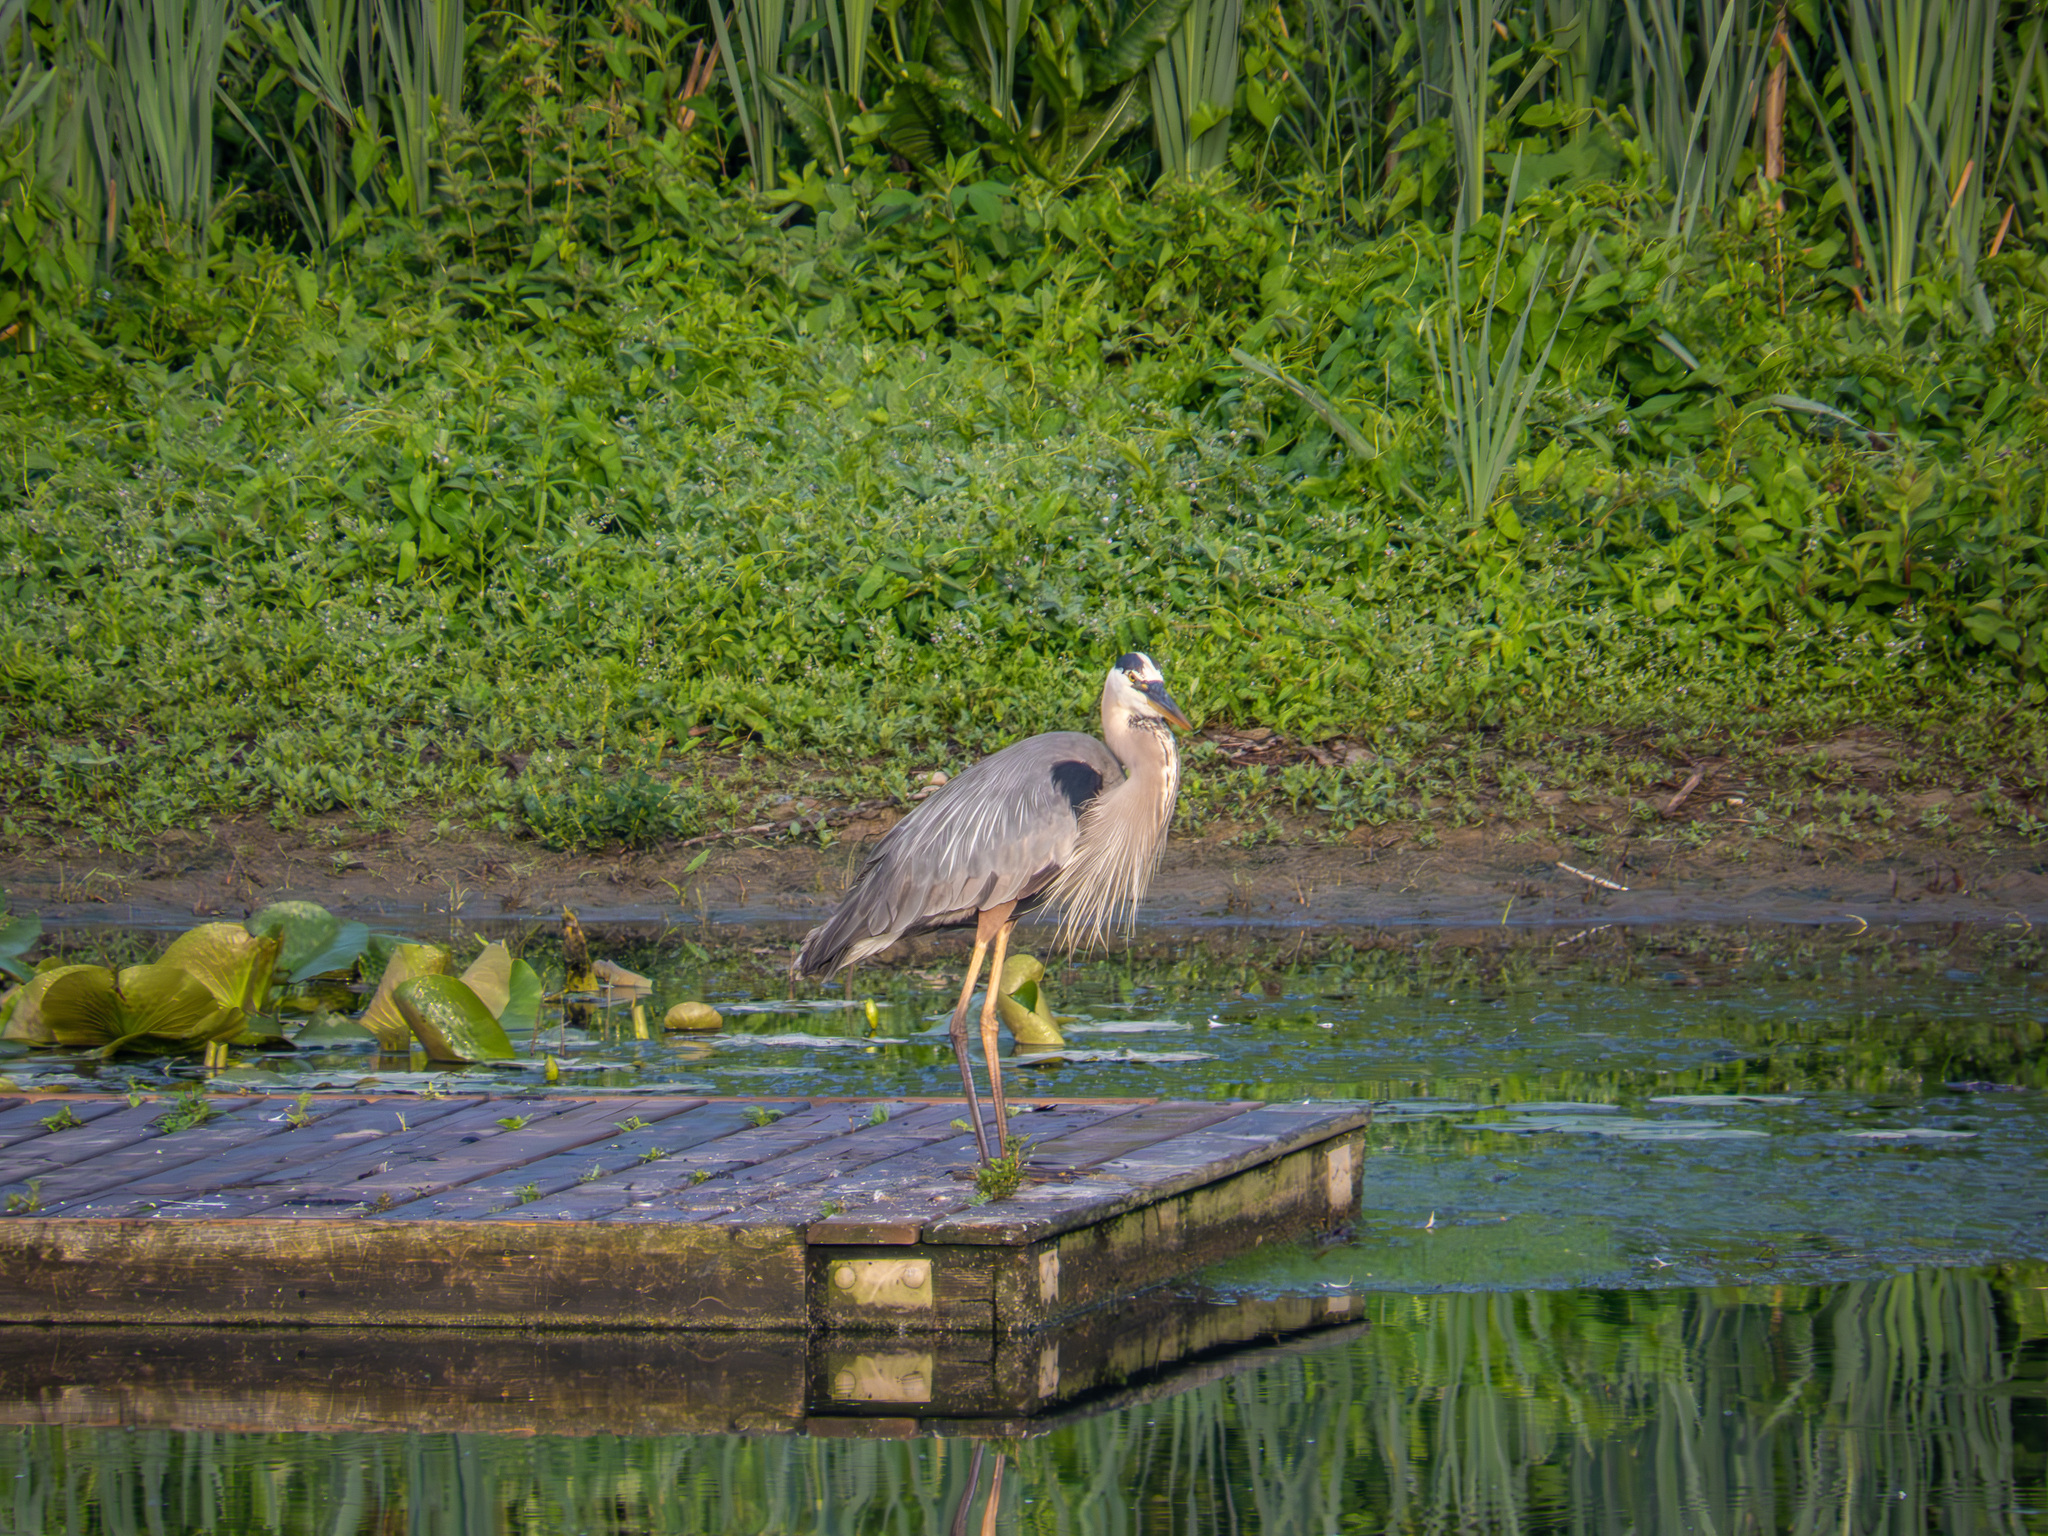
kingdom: Animalia
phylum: Chordata
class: Aves
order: Pelecaniformes
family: Ardeidae
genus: Ardea
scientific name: Ardea herodias
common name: Great blue heron
